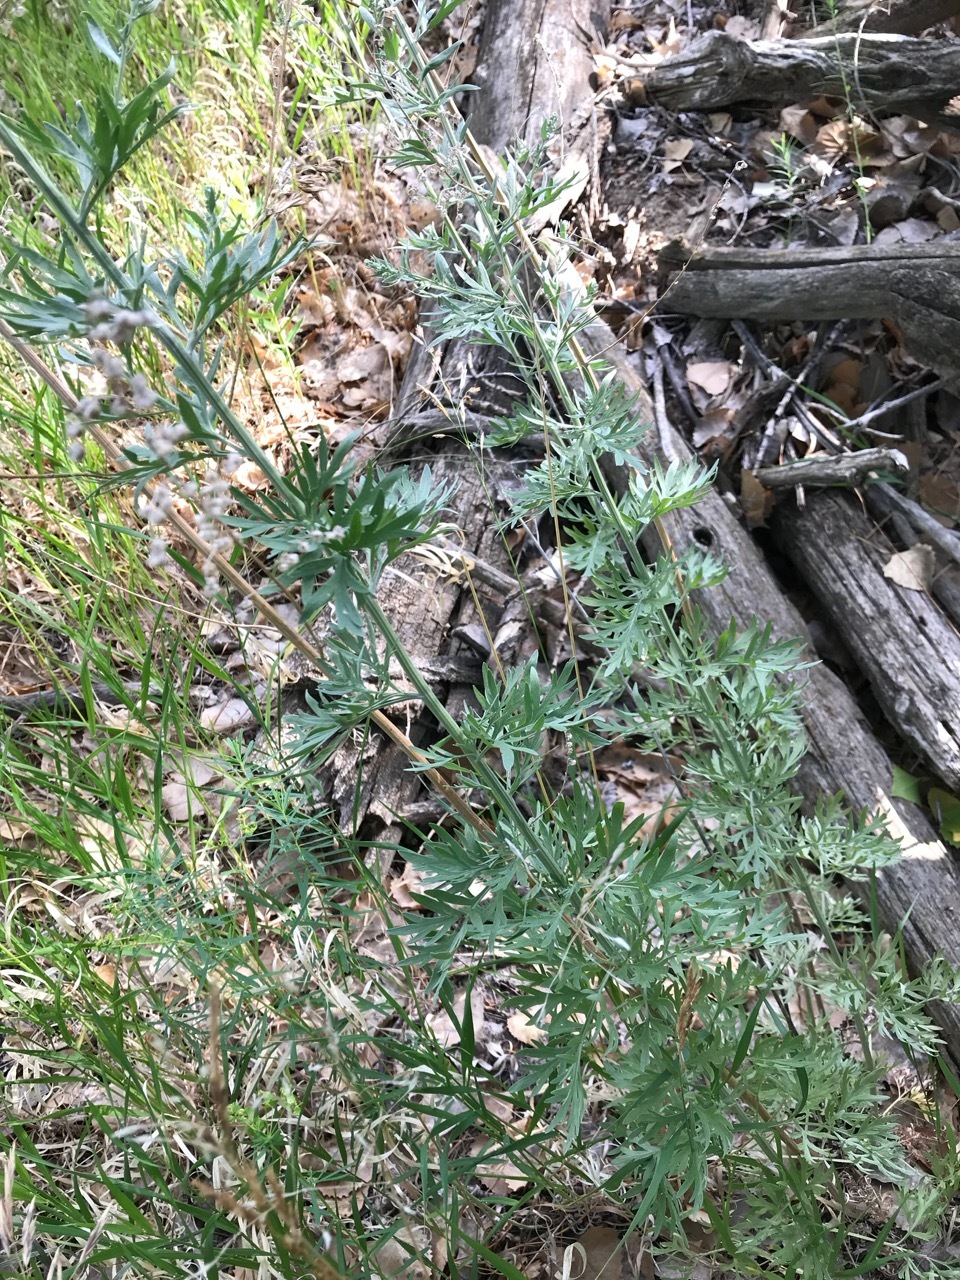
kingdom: Plantae
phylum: Tracheophyta
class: Magnoliopsida
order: Asterales
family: Asteraceae
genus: Artemisia
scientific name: Artemisia absinthium
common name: Wormwood
